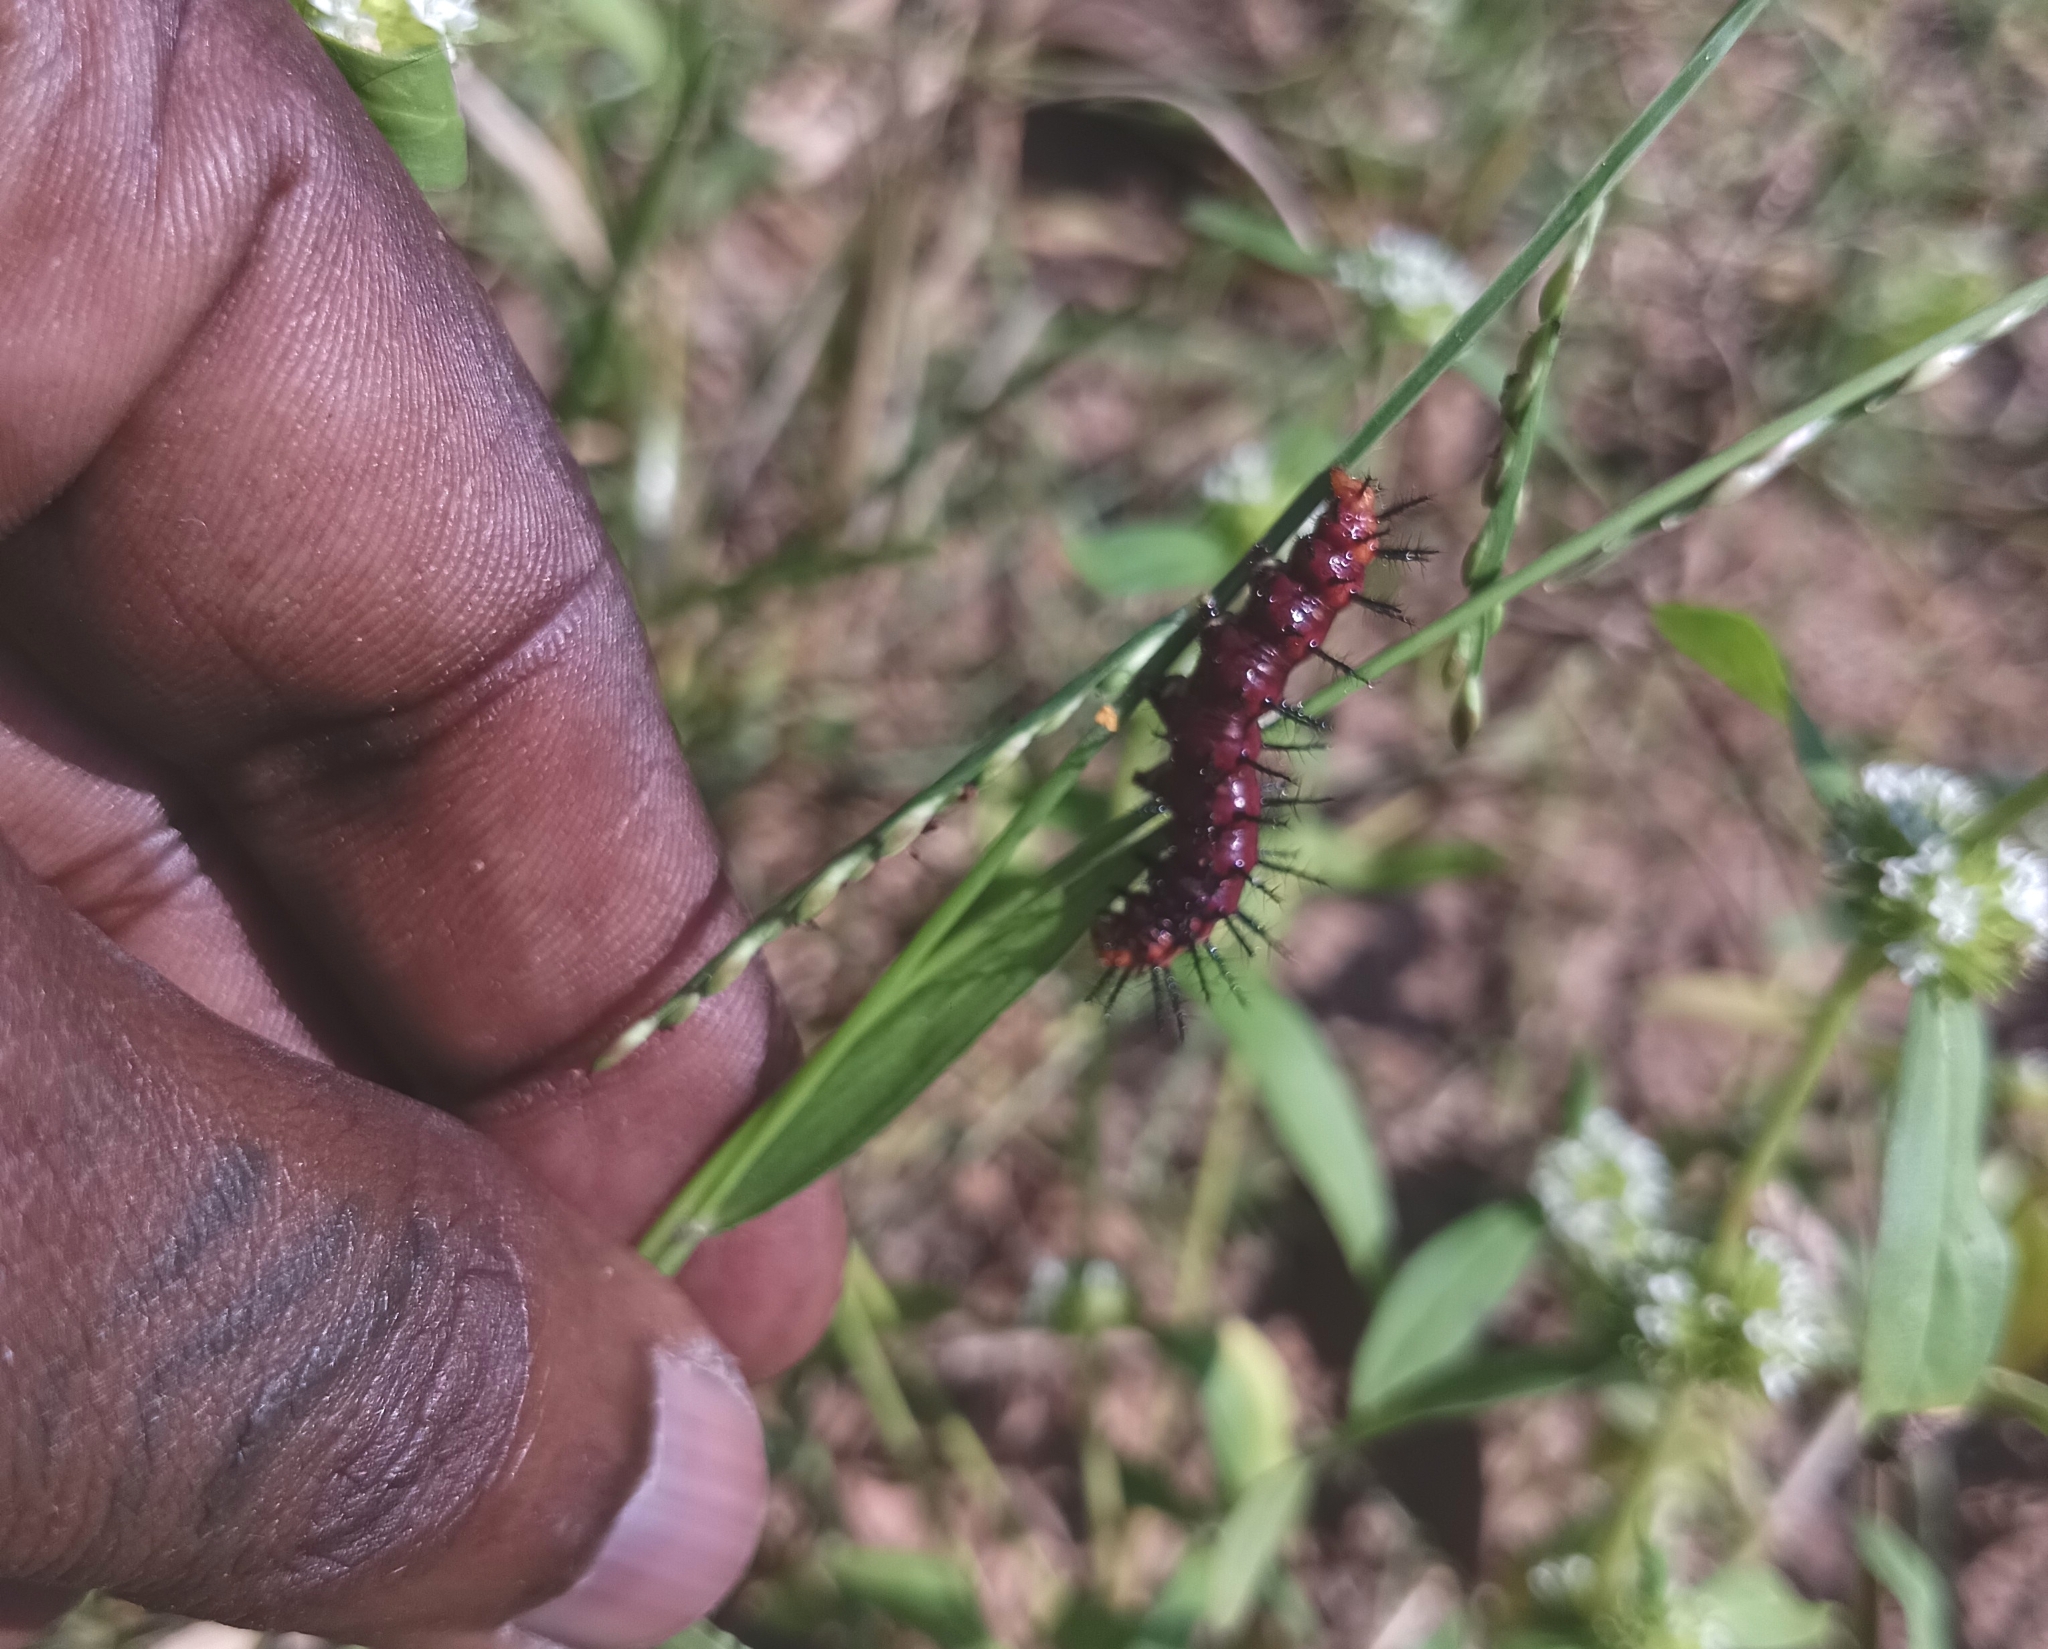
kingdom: Animalia
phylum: Arthropoda
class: Insecta
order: Lepidoptera
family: Nymphalidae
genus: Acraea
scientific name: Acraea terpsicore
